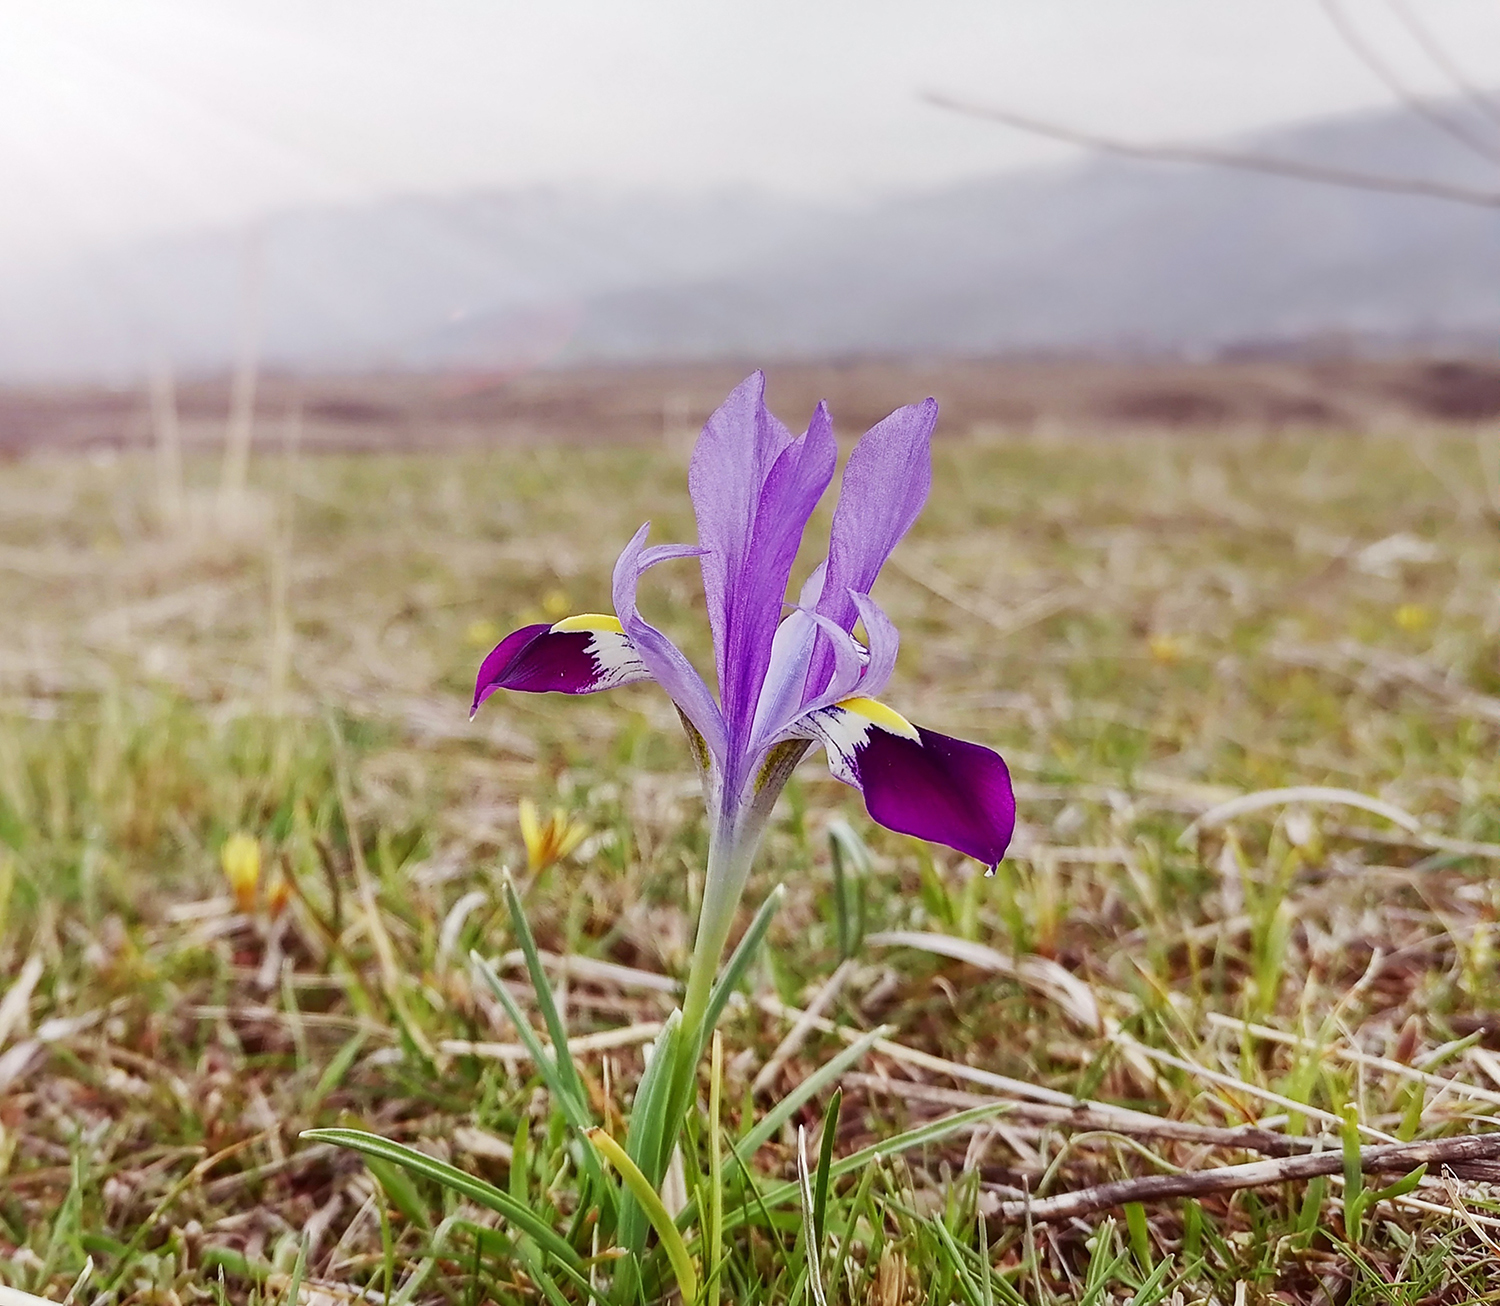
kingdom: Plantae
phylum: Tracheophyta
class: Liliopsida
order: Asparagales
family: Iridaceae
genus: Iris
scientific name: Iris kolpakowskiana
